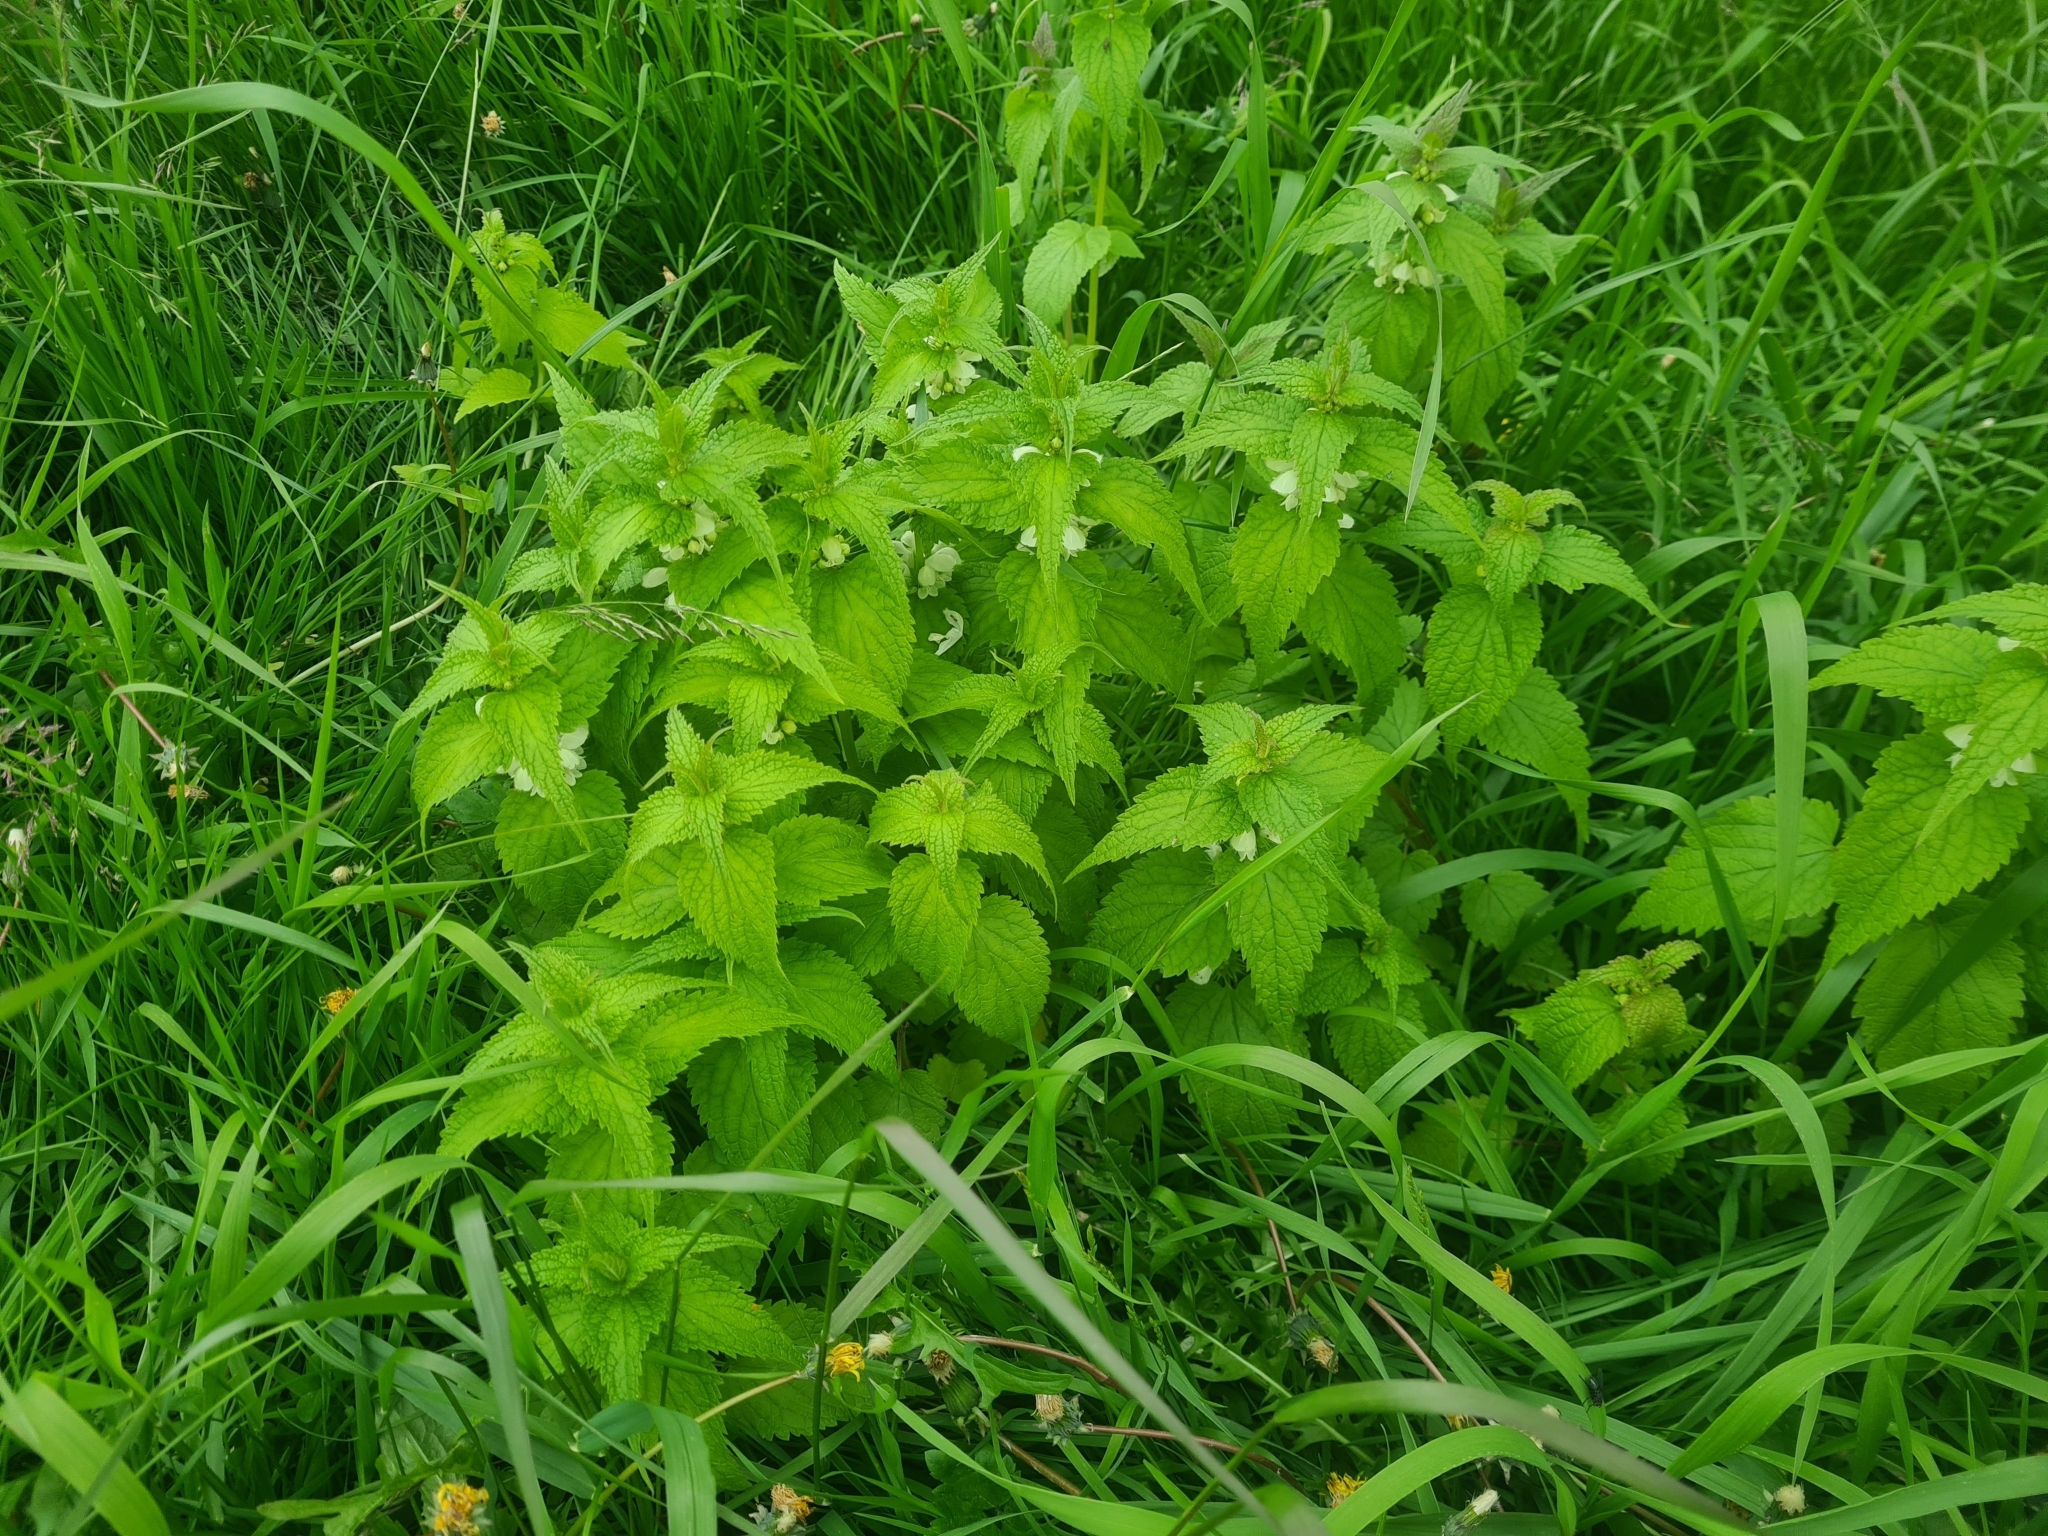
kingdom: Plantae
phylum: Tracheophyta
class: Magnoliopsida
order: Lamiales
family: Lamiaceae
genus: Lamium
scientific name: Lamium album
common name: White dead-nettle
